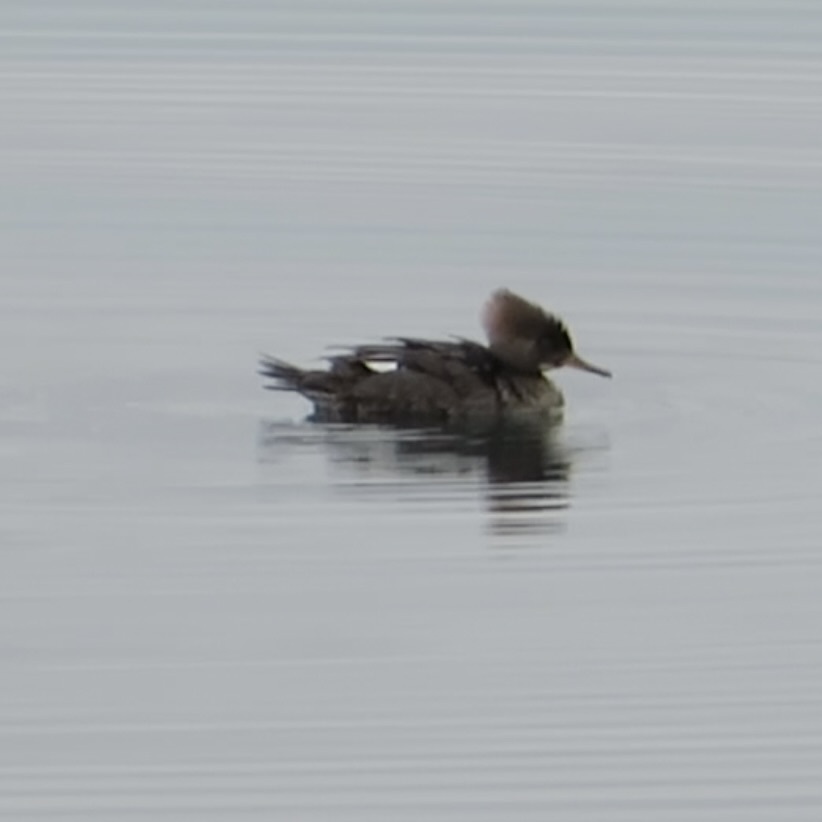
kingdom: Animalia
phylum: Chordata
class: Aves
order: Anseriformes
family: Anatidae
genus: Lophodytes
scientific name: Lophodytes cucullatus
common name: Hooded merganser
